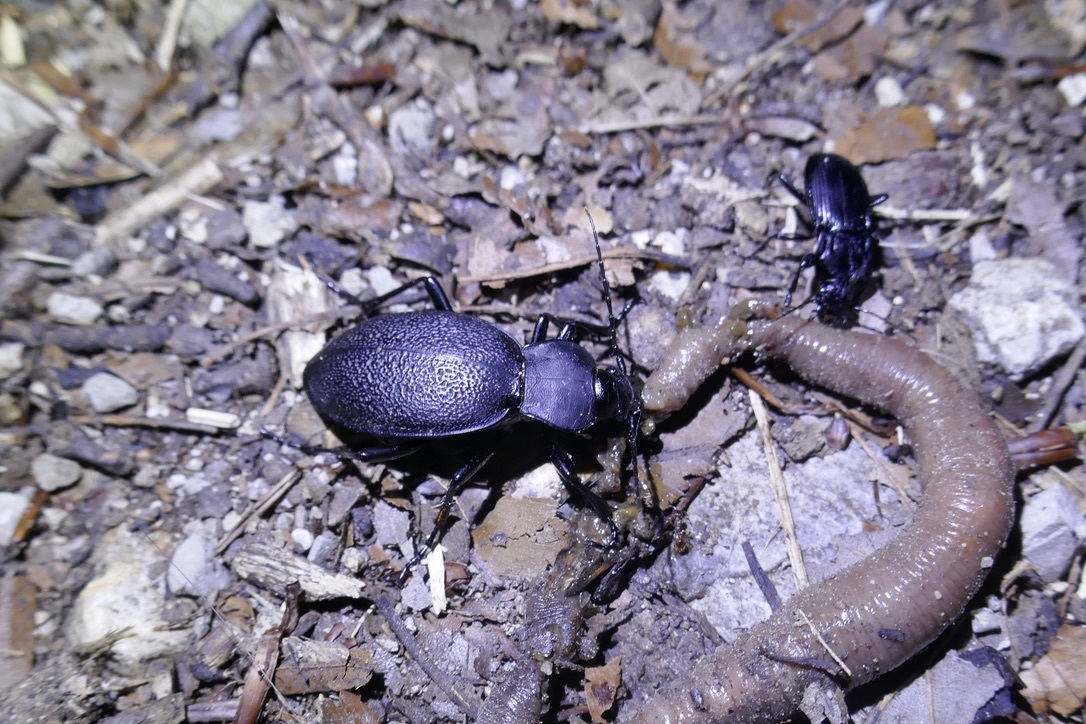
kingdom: Animalia
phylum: Arthropoda
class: Insecta
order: Coleoptera
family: Carabidae
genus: Carabus
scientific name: Carabus coriaceus
